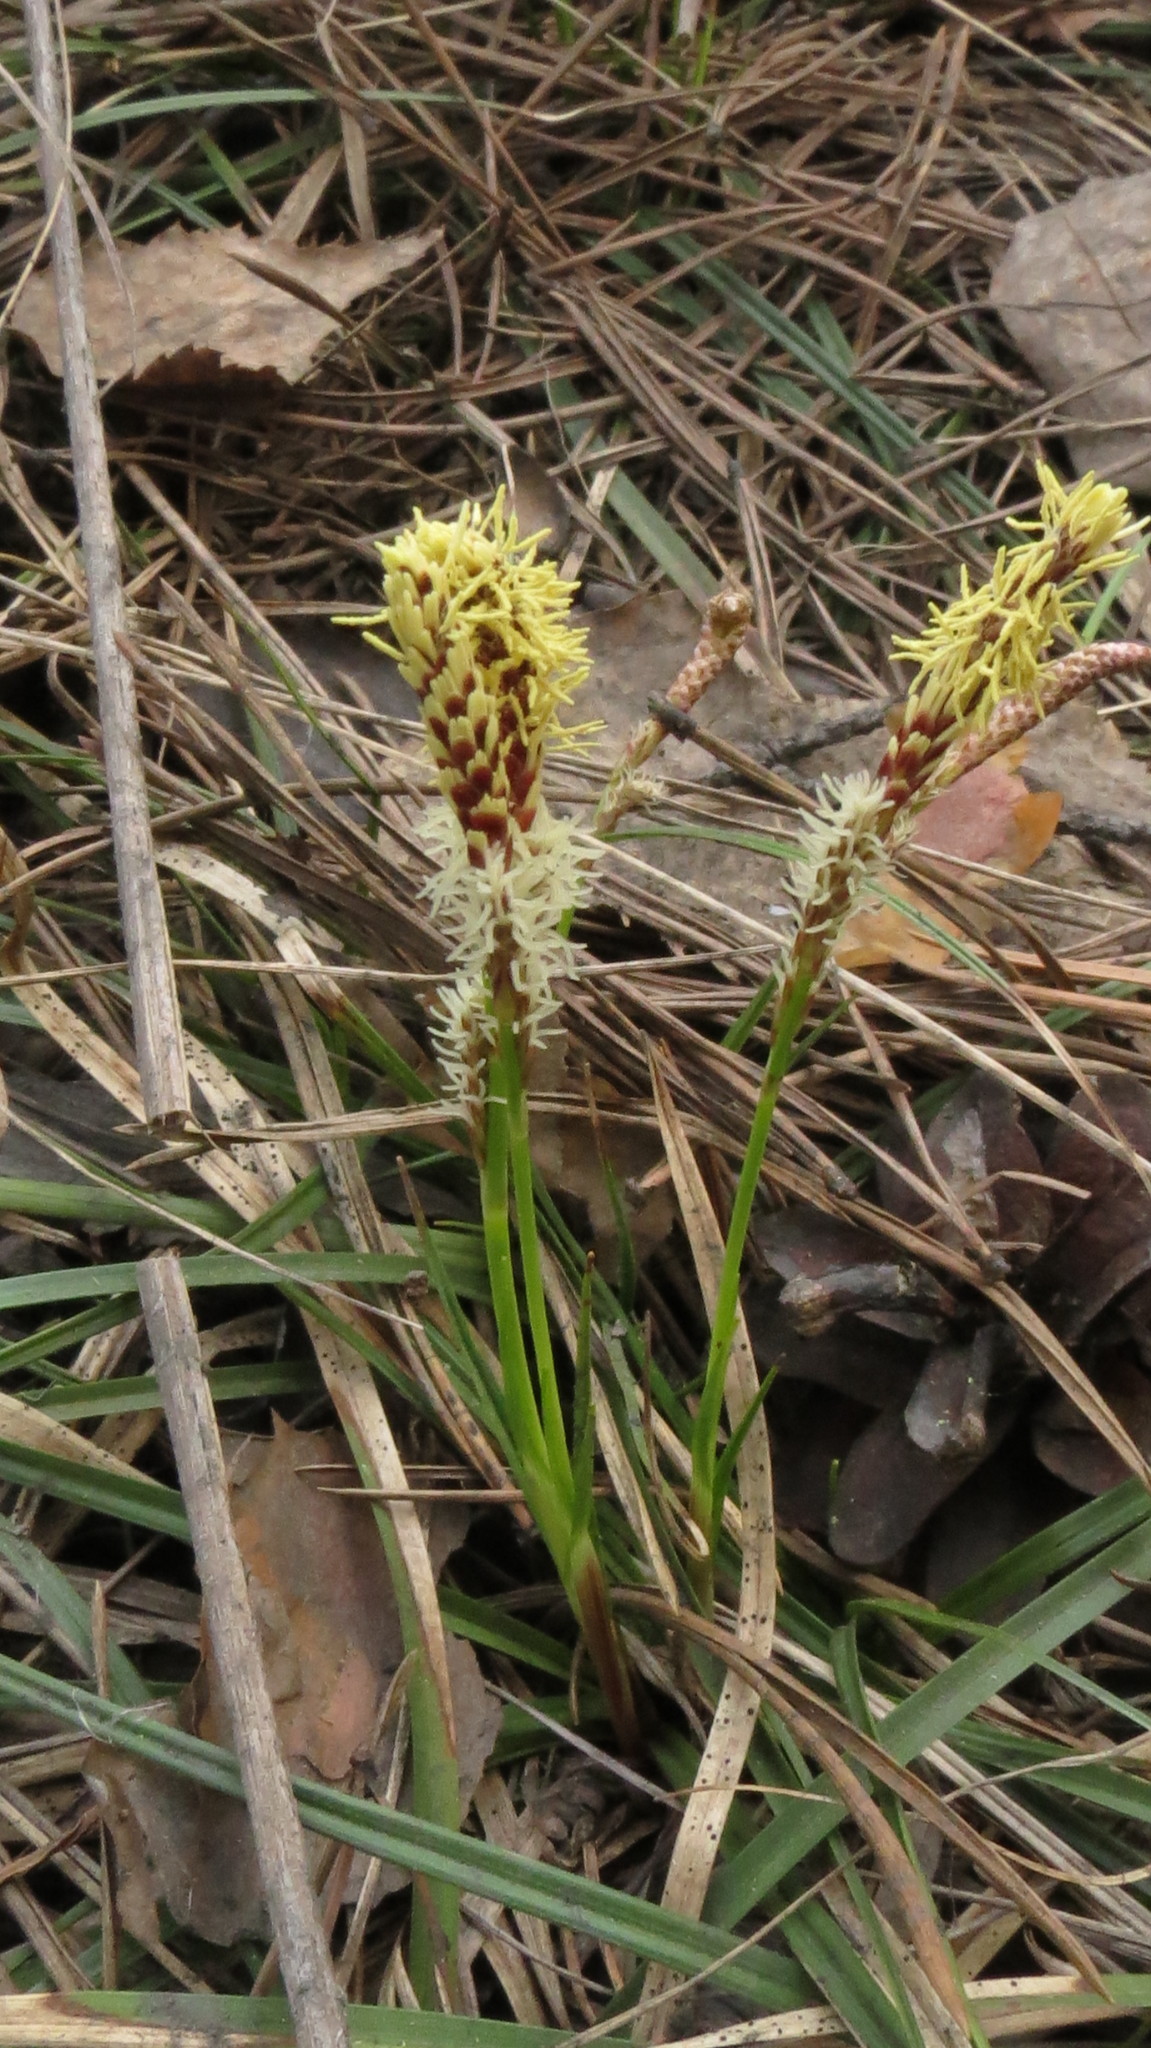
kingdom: Plantae
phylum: Tracheophyta
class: Liliopsida
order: Poales
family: Cyperaceae
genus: Carex
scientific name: Carex ericetorum
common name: Rare spring-sedge
